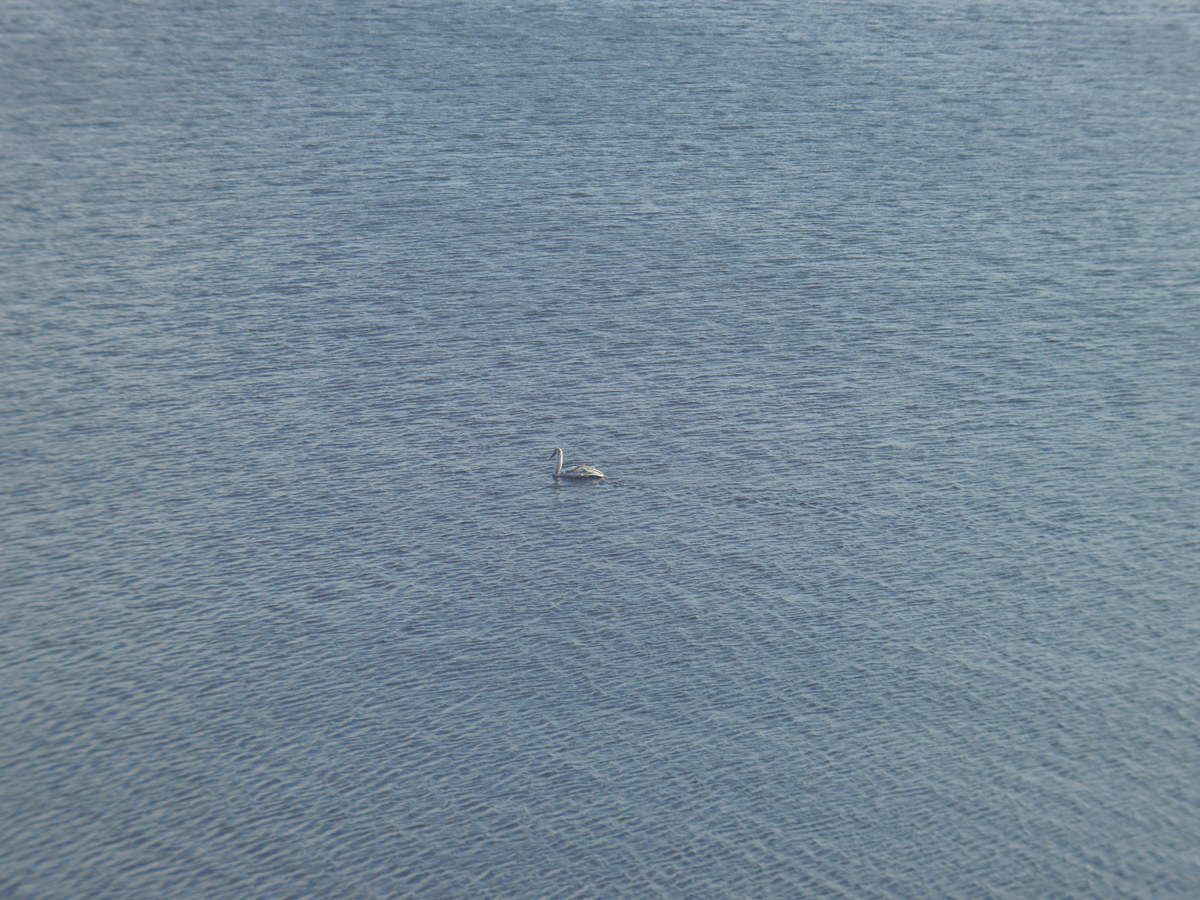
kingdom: Animalia
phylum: Chordata
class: Aves
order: Anseriformes
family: Anatidae
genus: Cygnus
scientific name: Cygnus olor
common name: Mute swan
